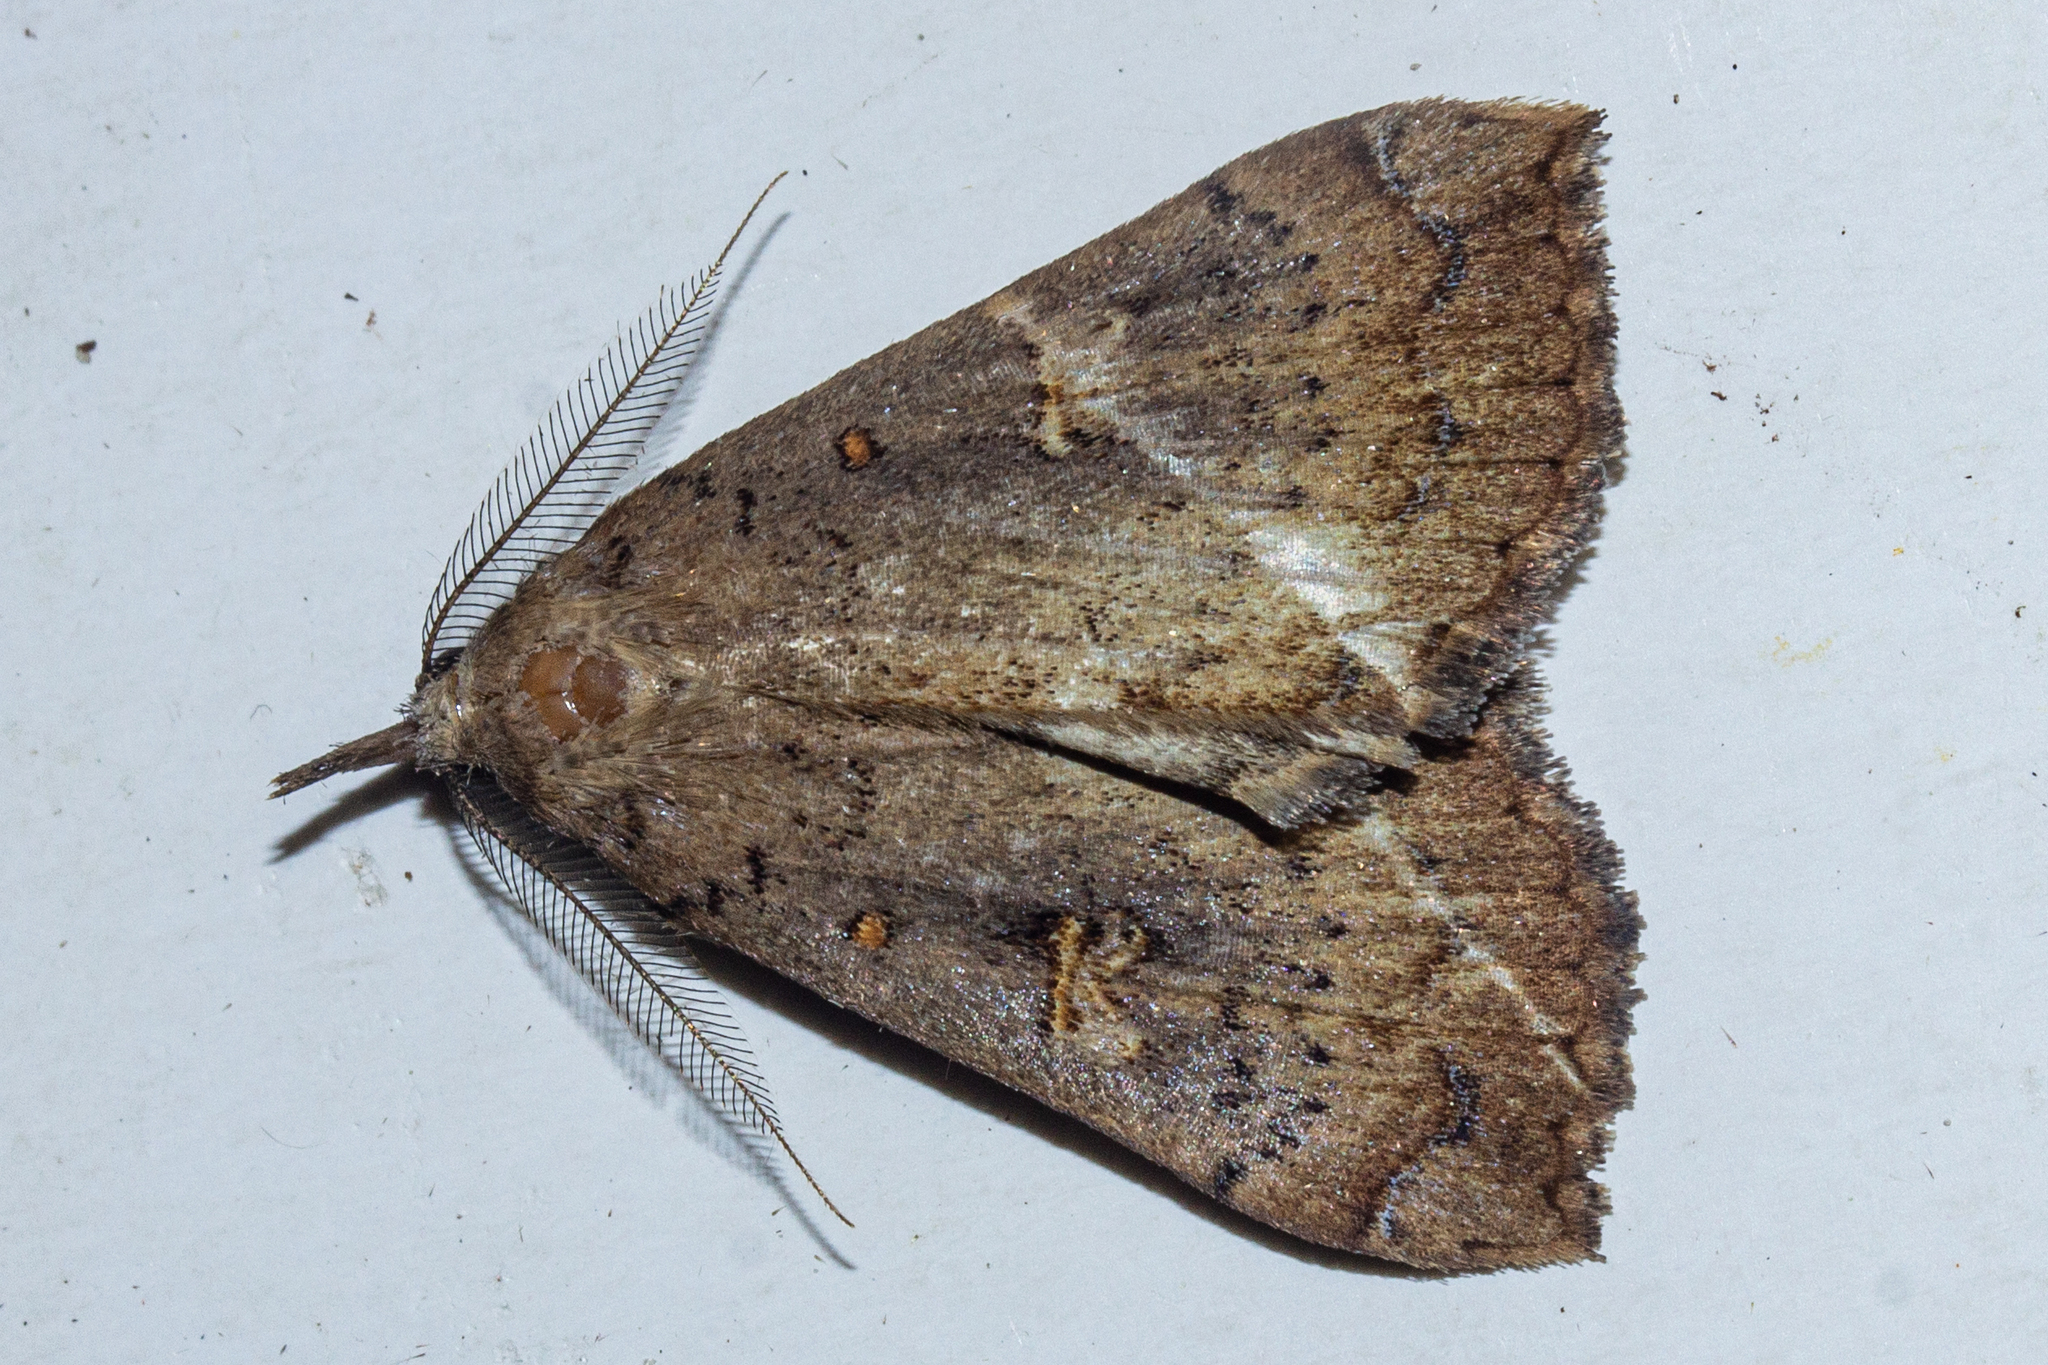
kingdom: Animalia
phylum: Arthropoda
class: Insecta
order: Lepidoptera
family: Erebidae
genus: Rhapsa
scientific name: Rhapsa scotosialis
